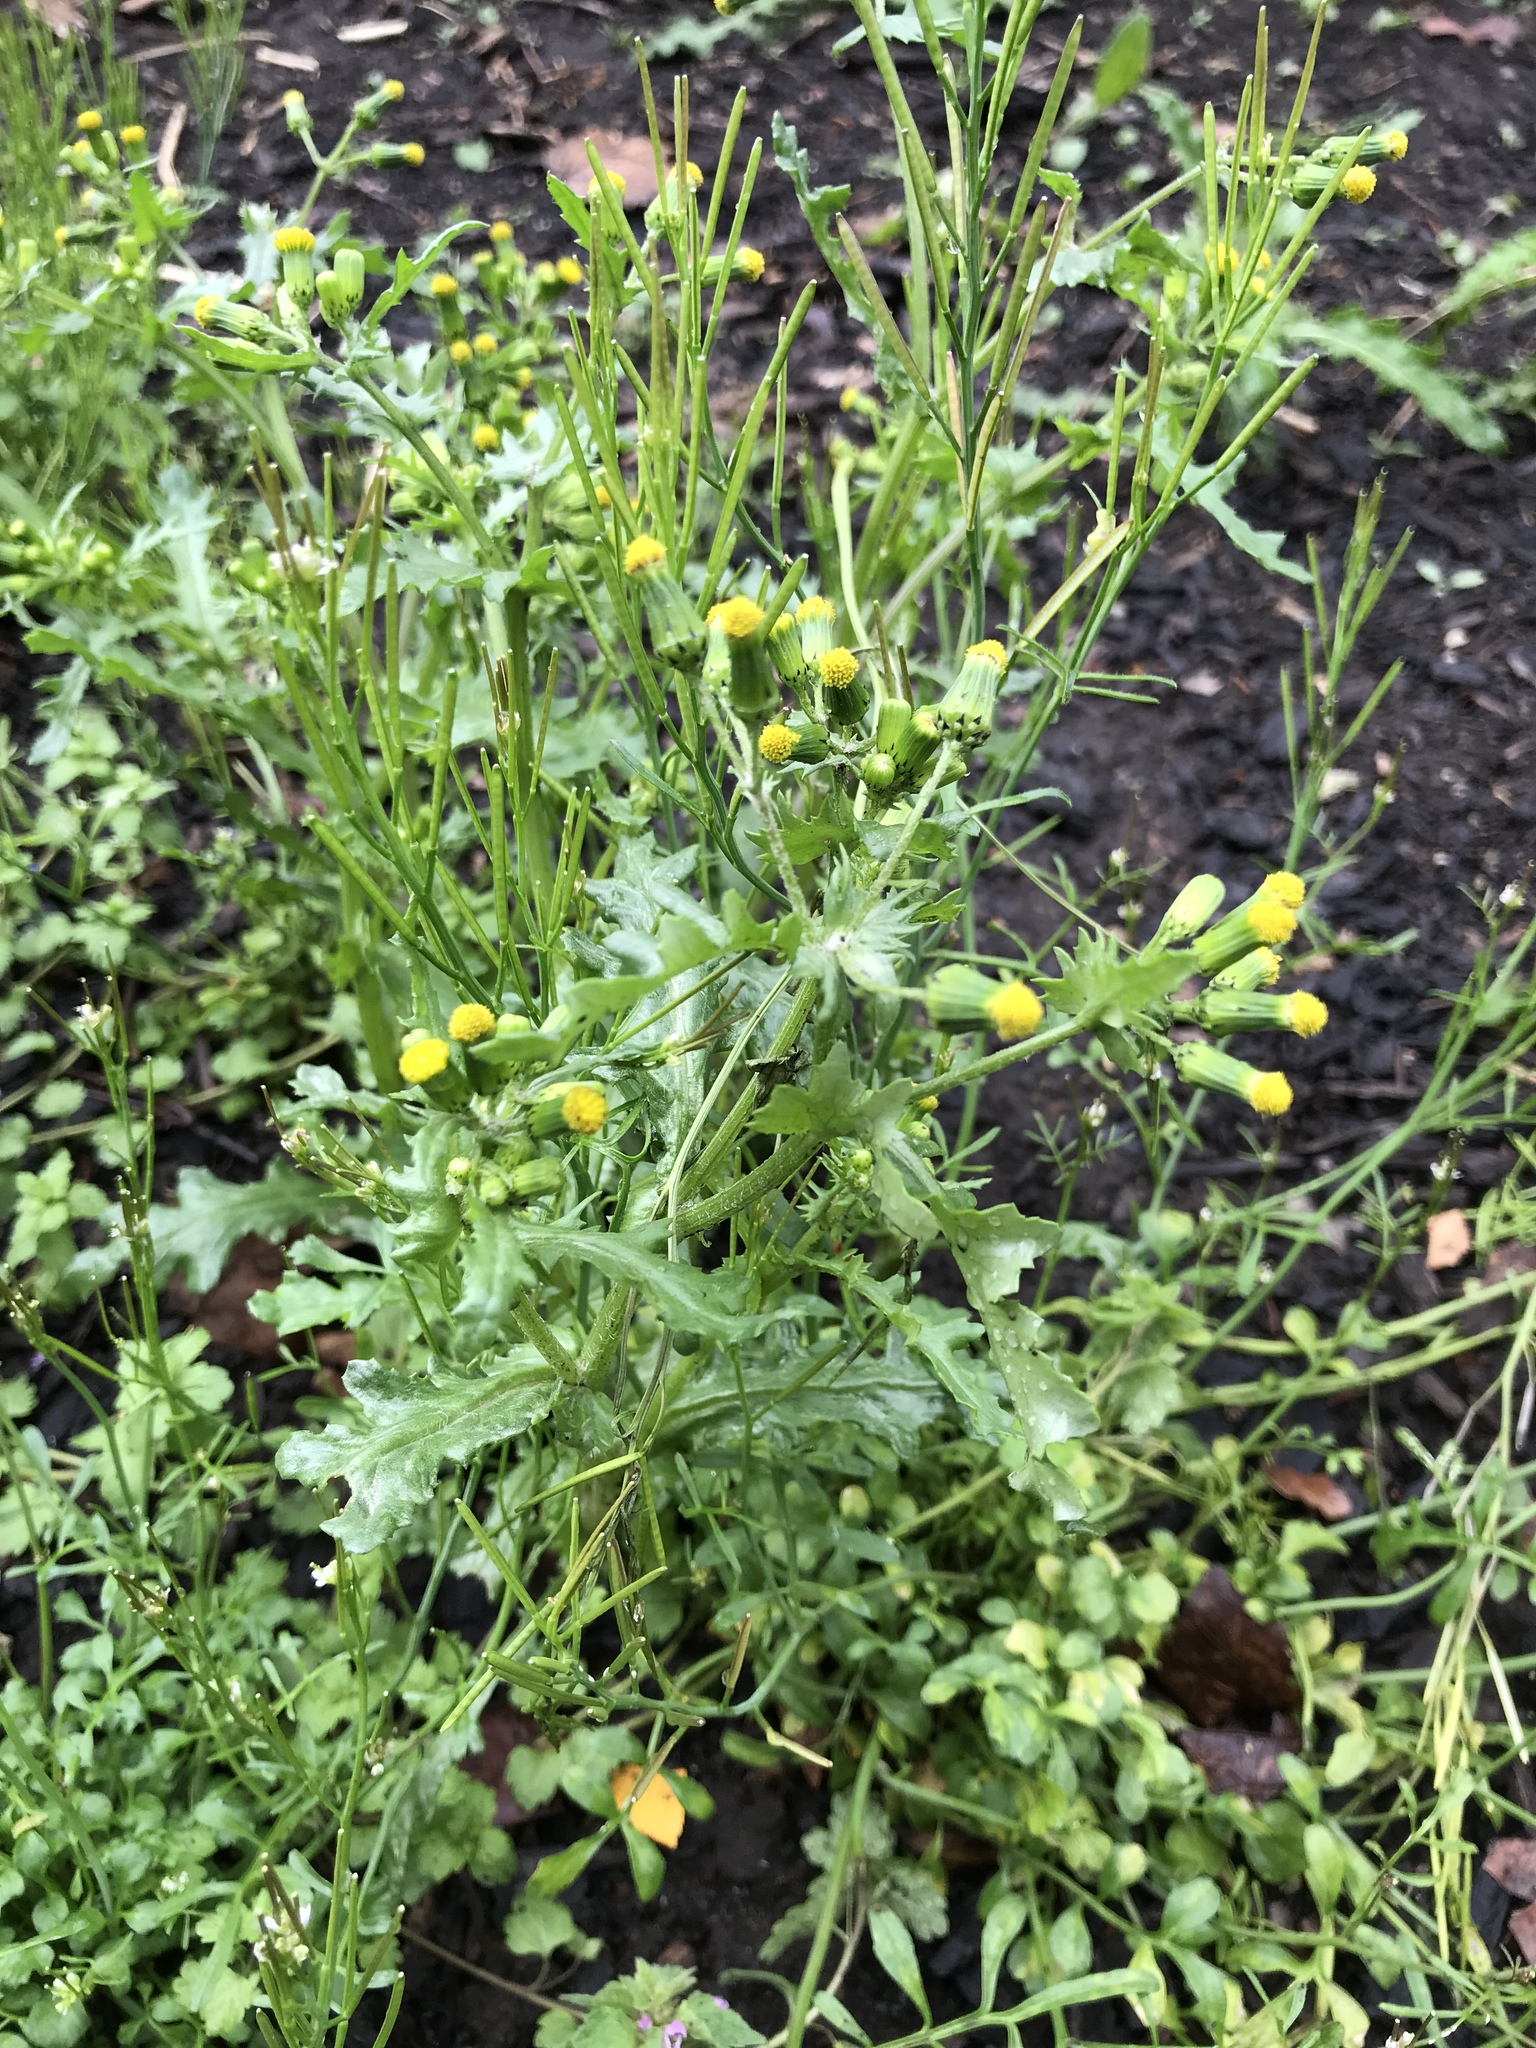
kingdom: Plantae
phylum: Tracheophyta
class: Magnoliopsida
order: Asterales
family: Asteraceae
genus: Senecio
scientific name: Senecio vulgaris
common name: Old-man-in-the-spring
